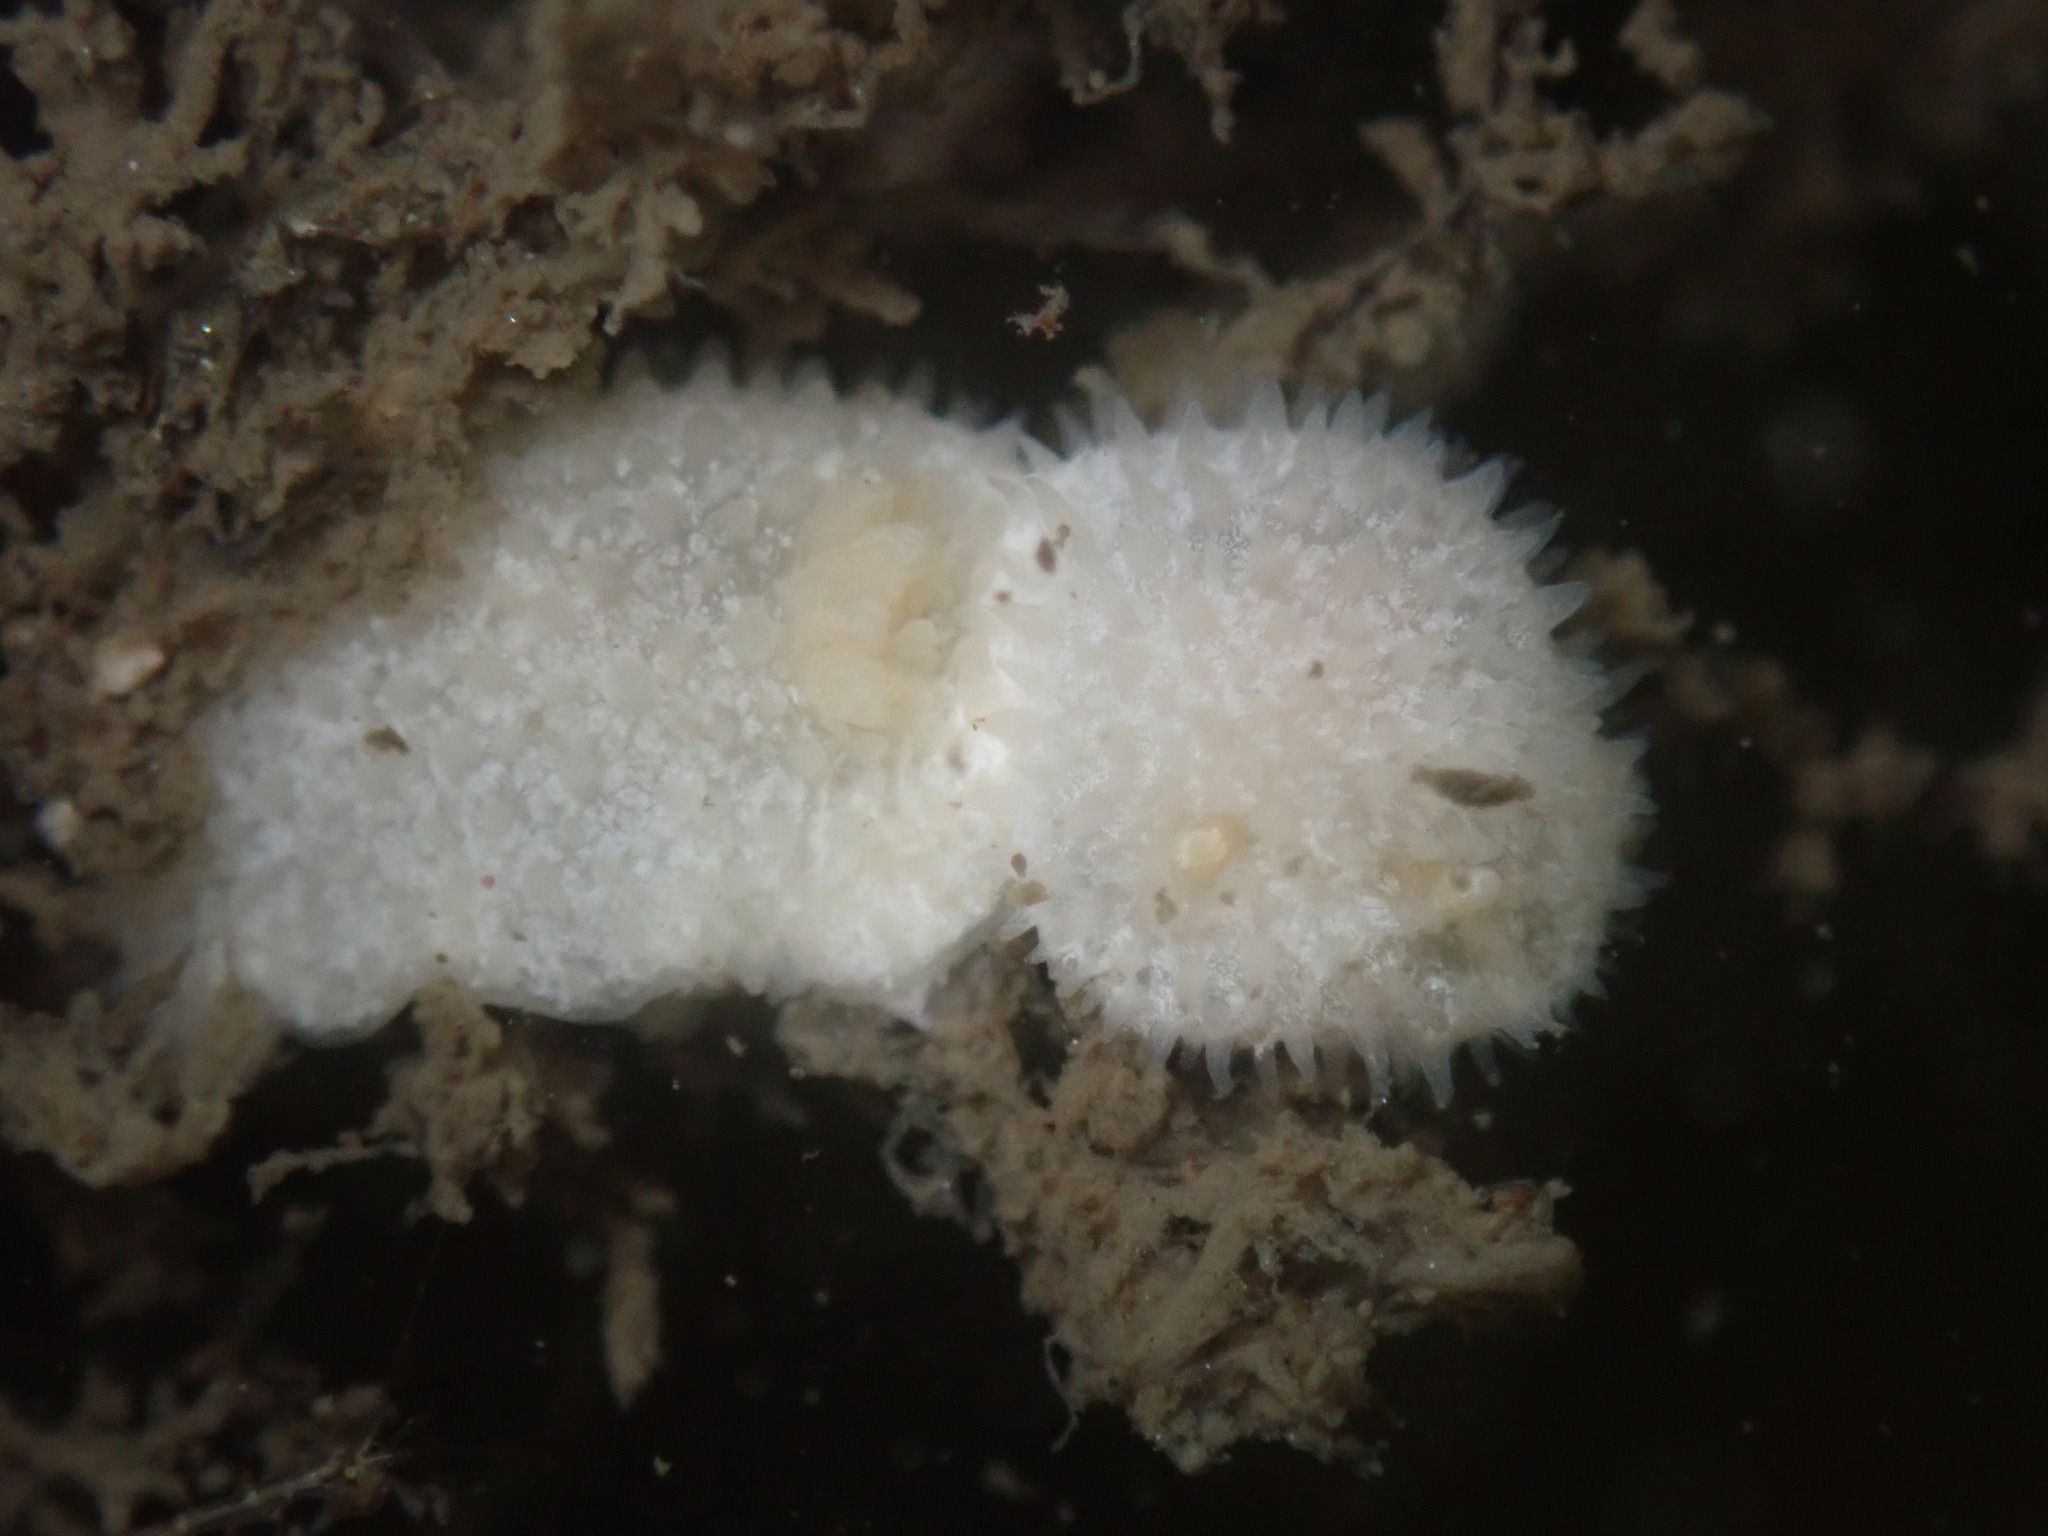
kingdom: Animalia
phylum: Mollusca
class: Gastropoda
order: Nudibranchia
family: Calycidorididae
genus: Diaphorodoris
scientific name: Diaphorodoris lirulatocauda
